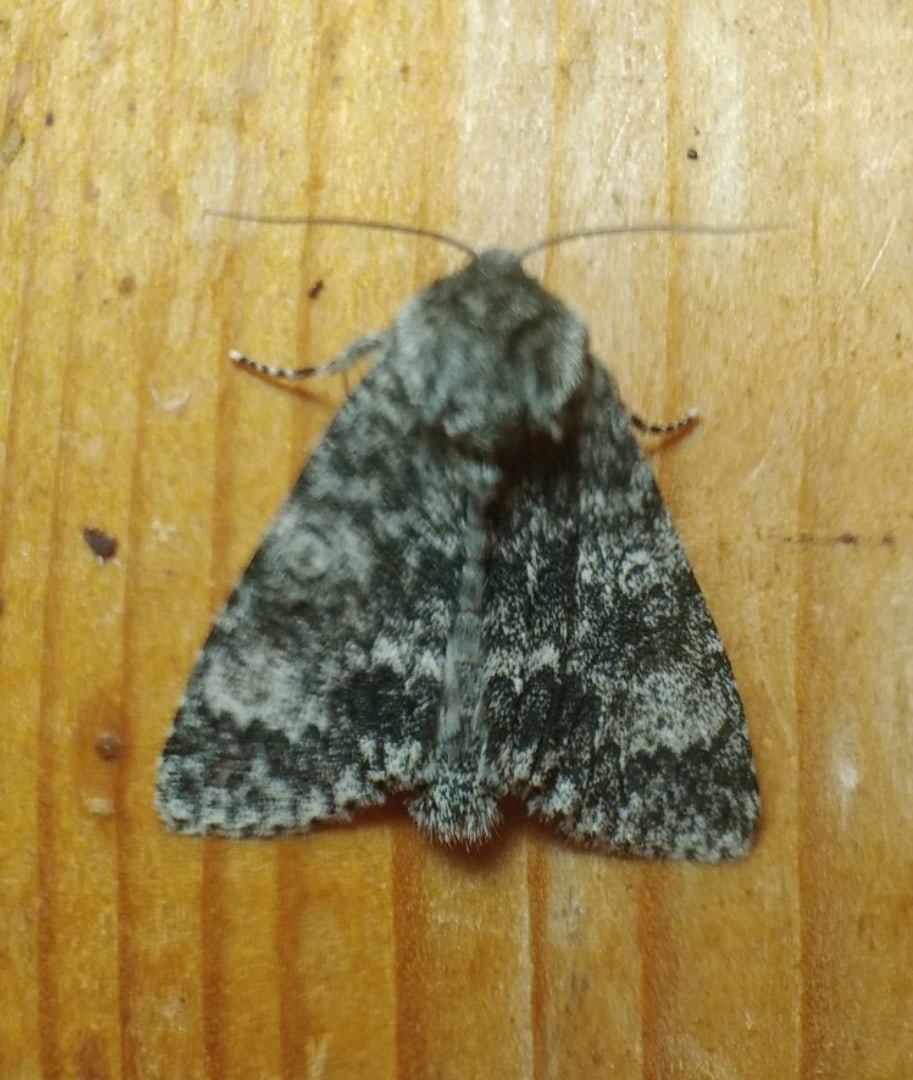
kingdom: Animalia
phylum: Arthropoda
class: Insecta
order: Lepidoptera
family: Noctuidae
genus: Acronicta
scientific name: Acronicta megacephala
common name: Poplar grey
